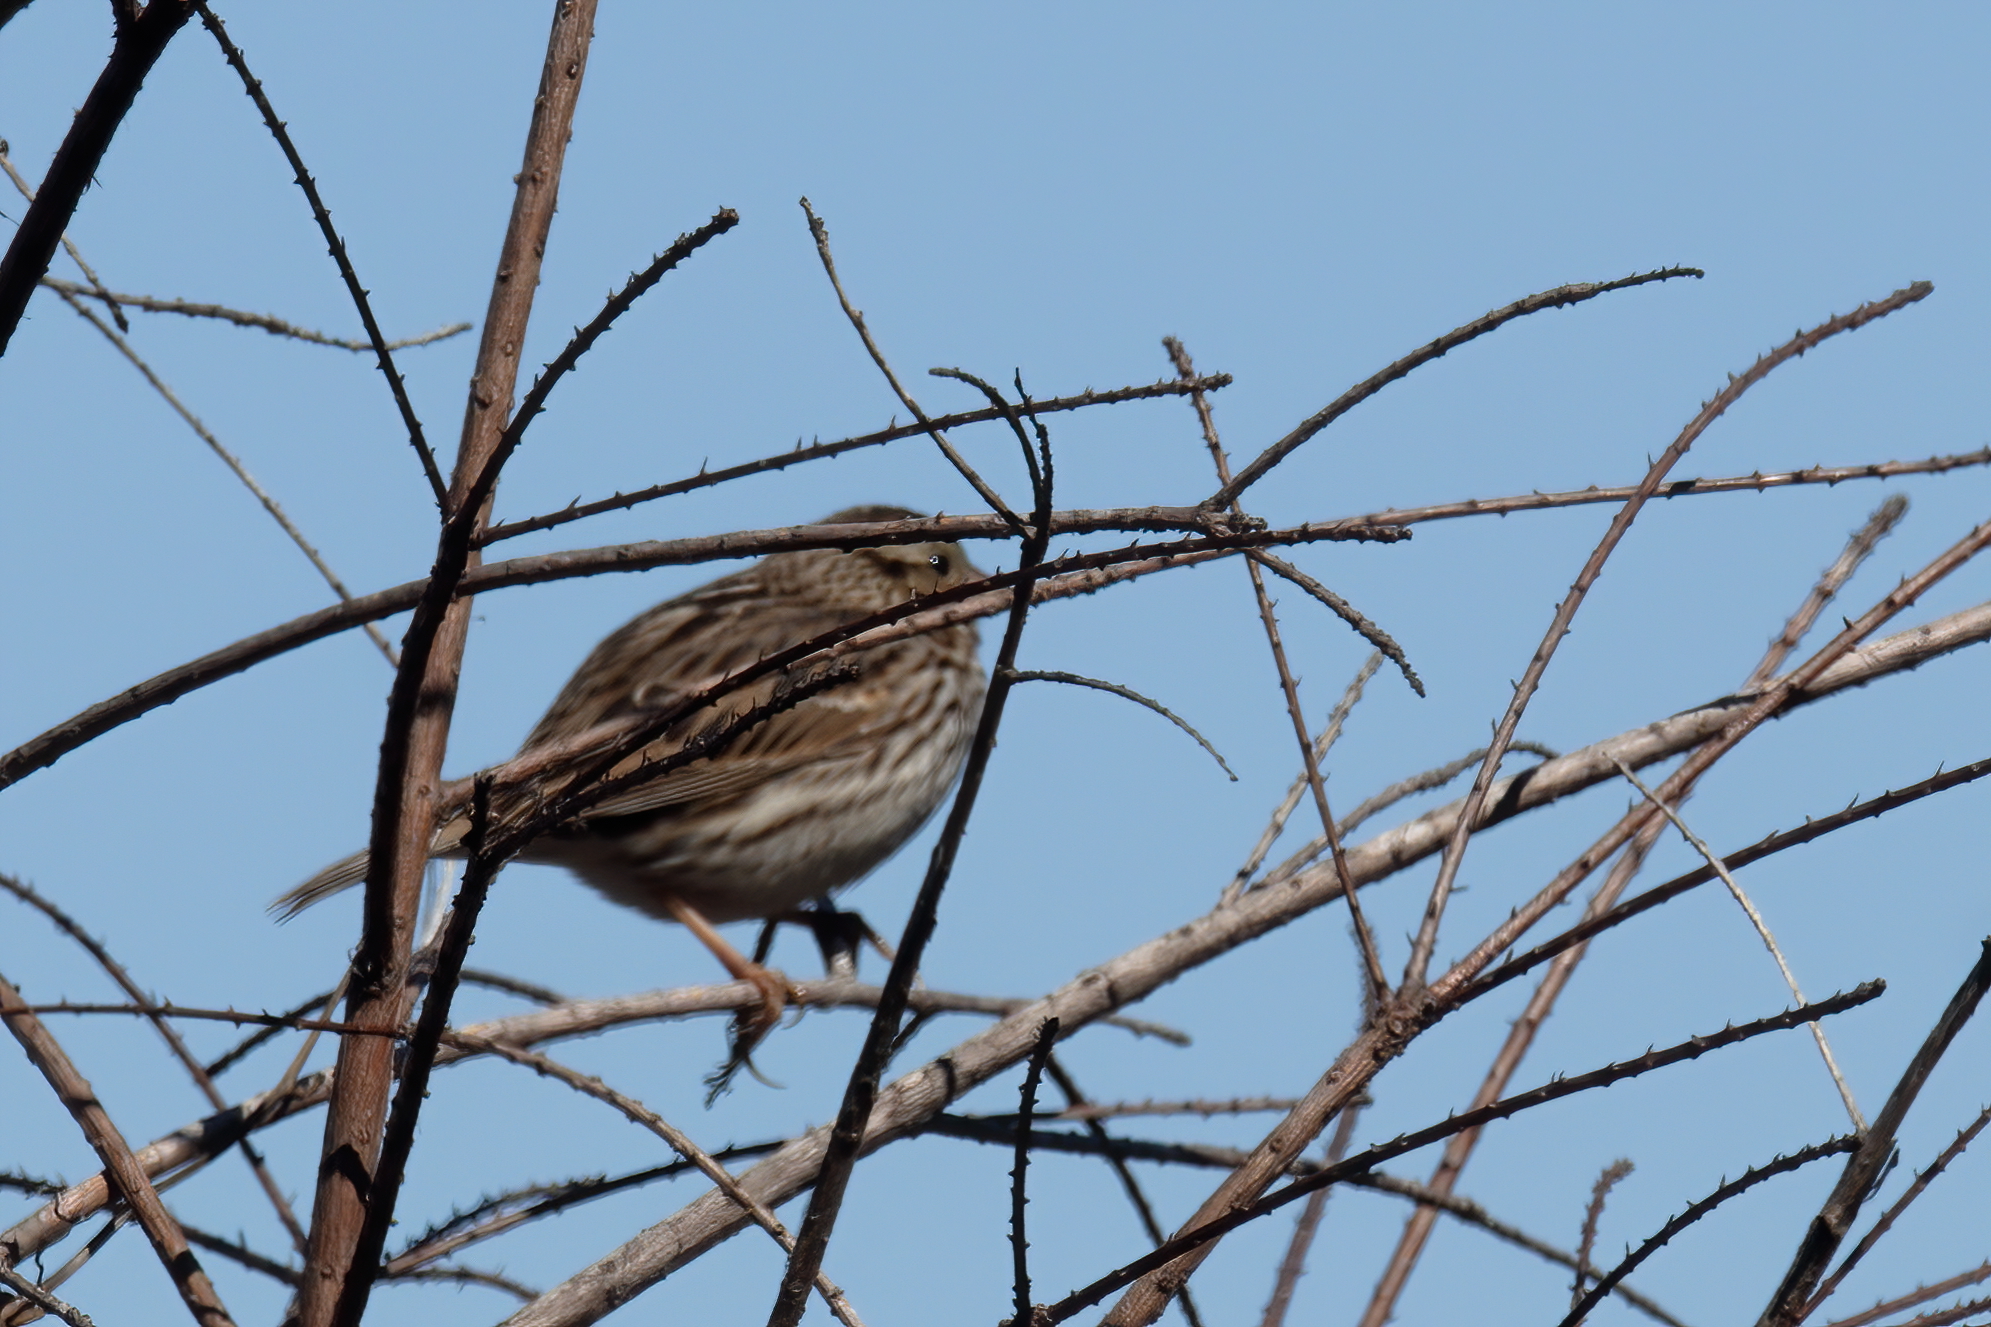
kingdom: Animalia
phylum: Chordata
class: Aves
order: Passeriformes
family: Passerellidae
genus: Melospiza
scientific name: Melospiza melodia
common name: Song sparrow
